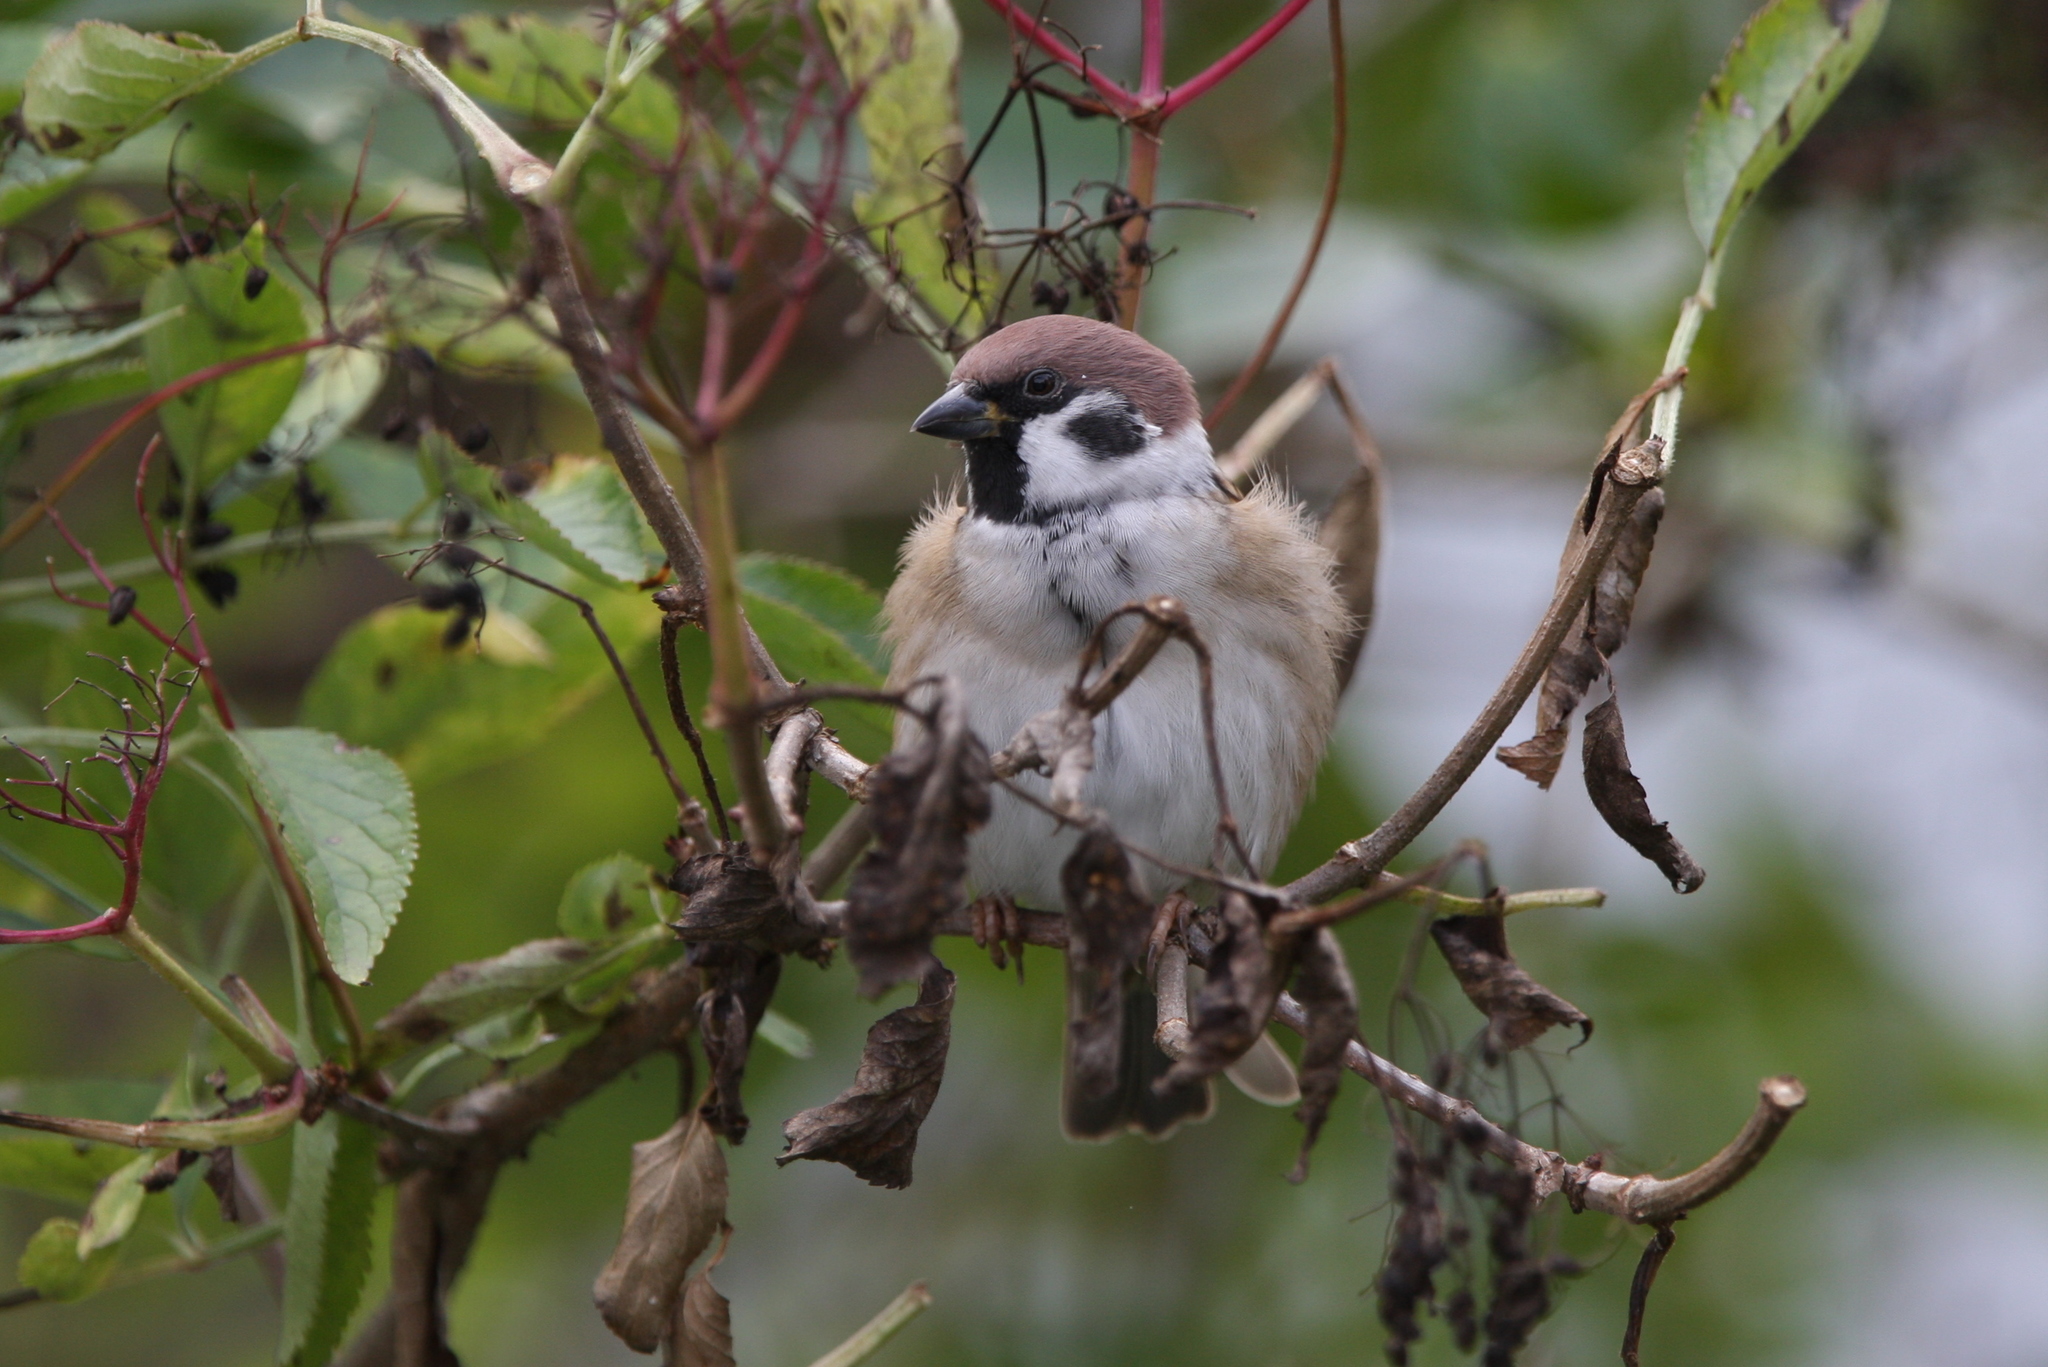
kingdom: Animalia
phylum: Chordata
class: Aves
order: Passeriformes
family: Passeridae
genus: Passer
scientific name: Passer montanus
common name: Eurasian tree sparrow
